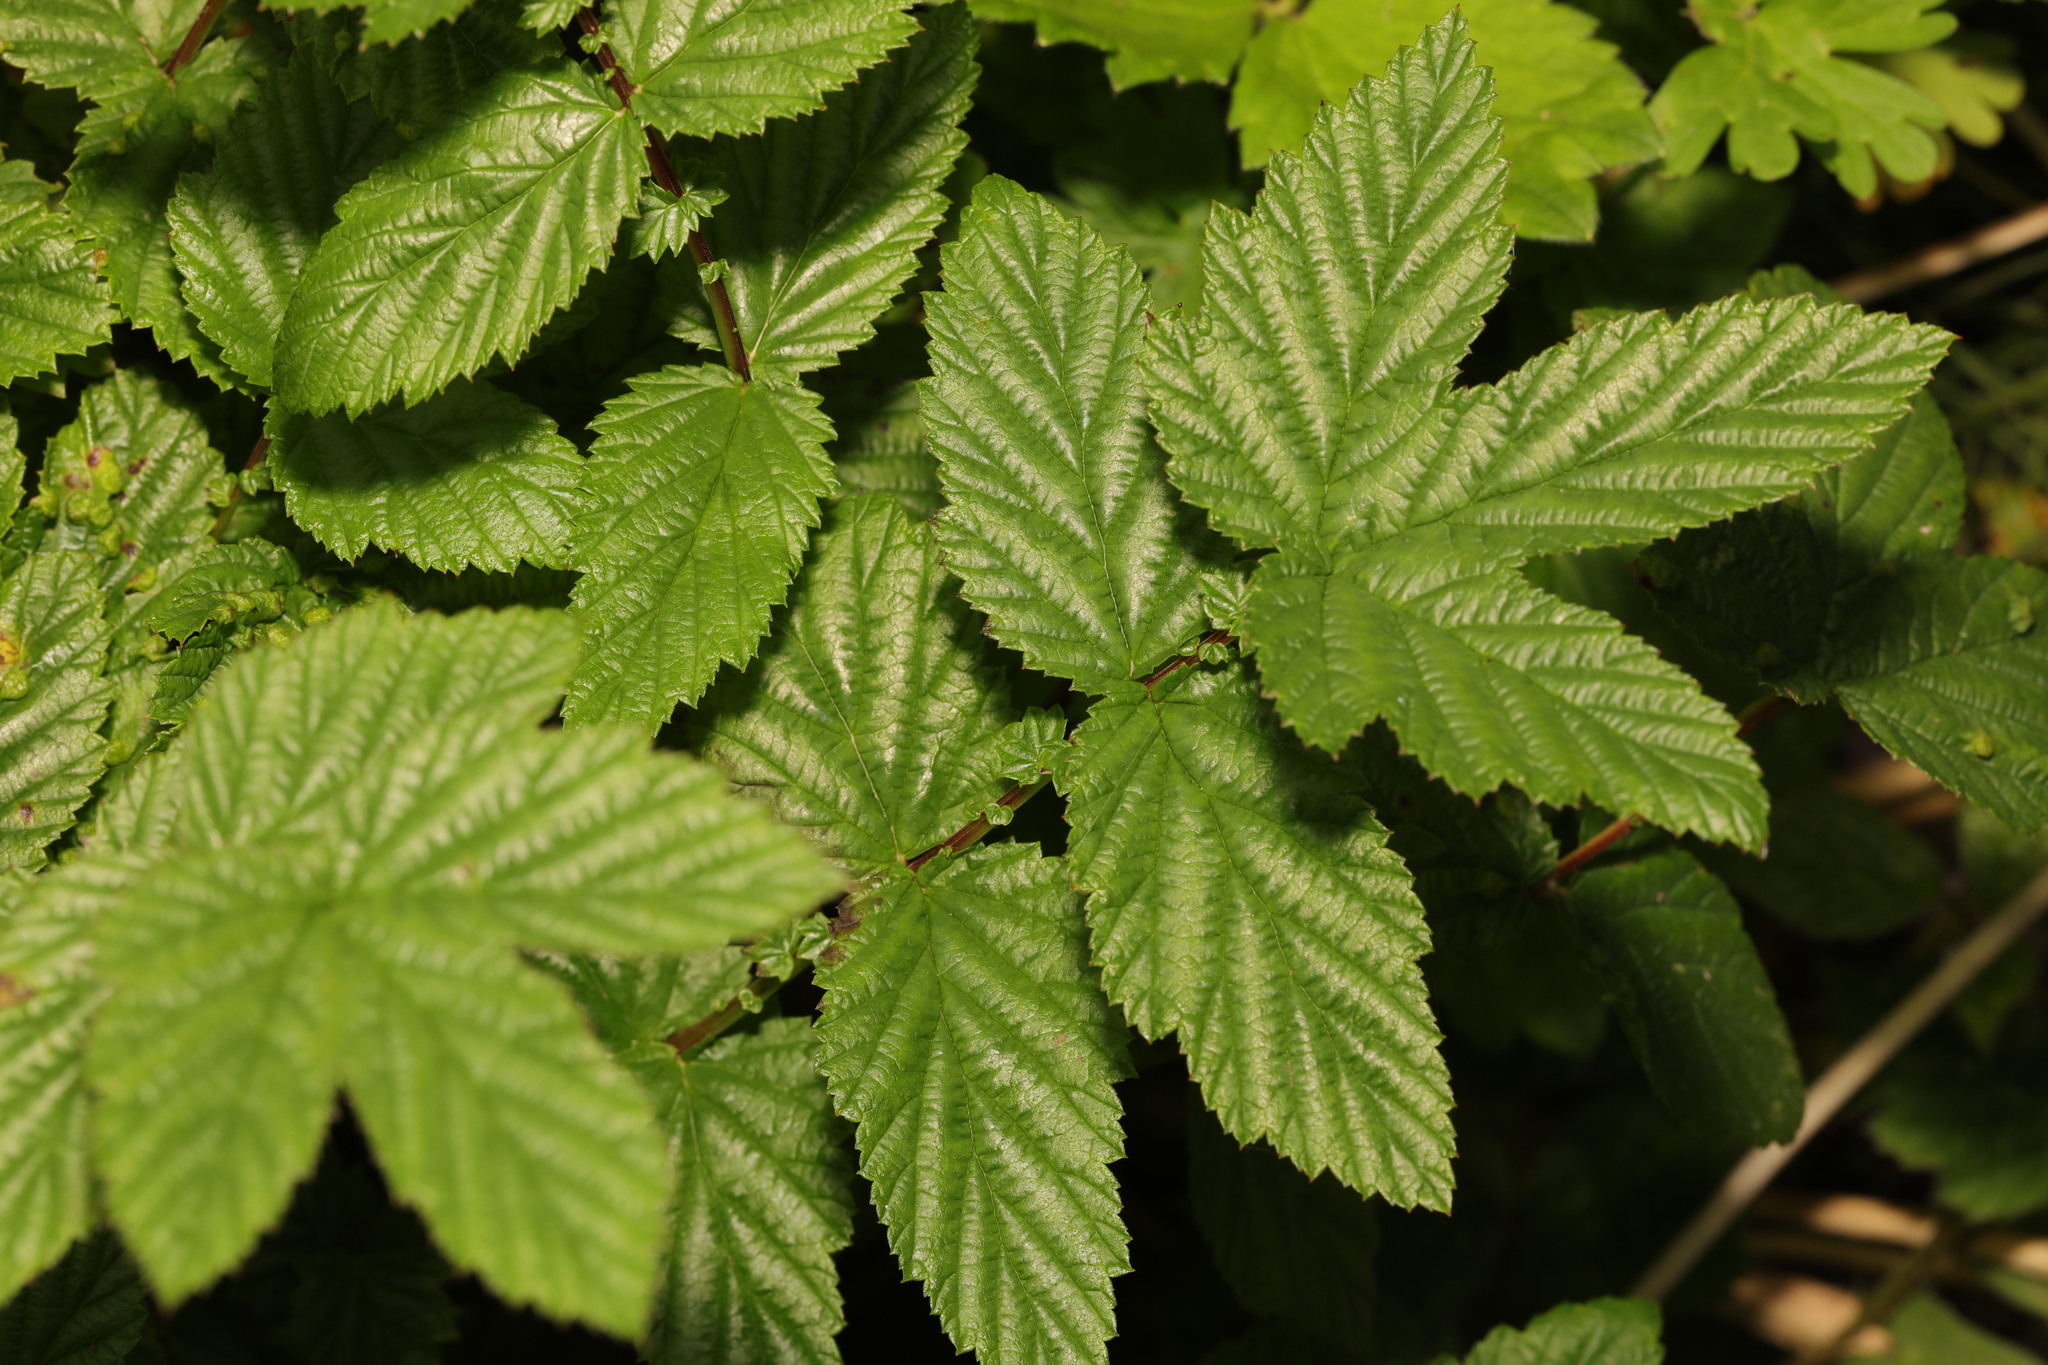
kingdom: Plantae
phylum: Tracheophyta
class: Magnoliopsida
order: Rosales
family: Rosaceae
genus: Filipendula
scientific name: Filipendula ulmaria
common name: Meadowsweet
